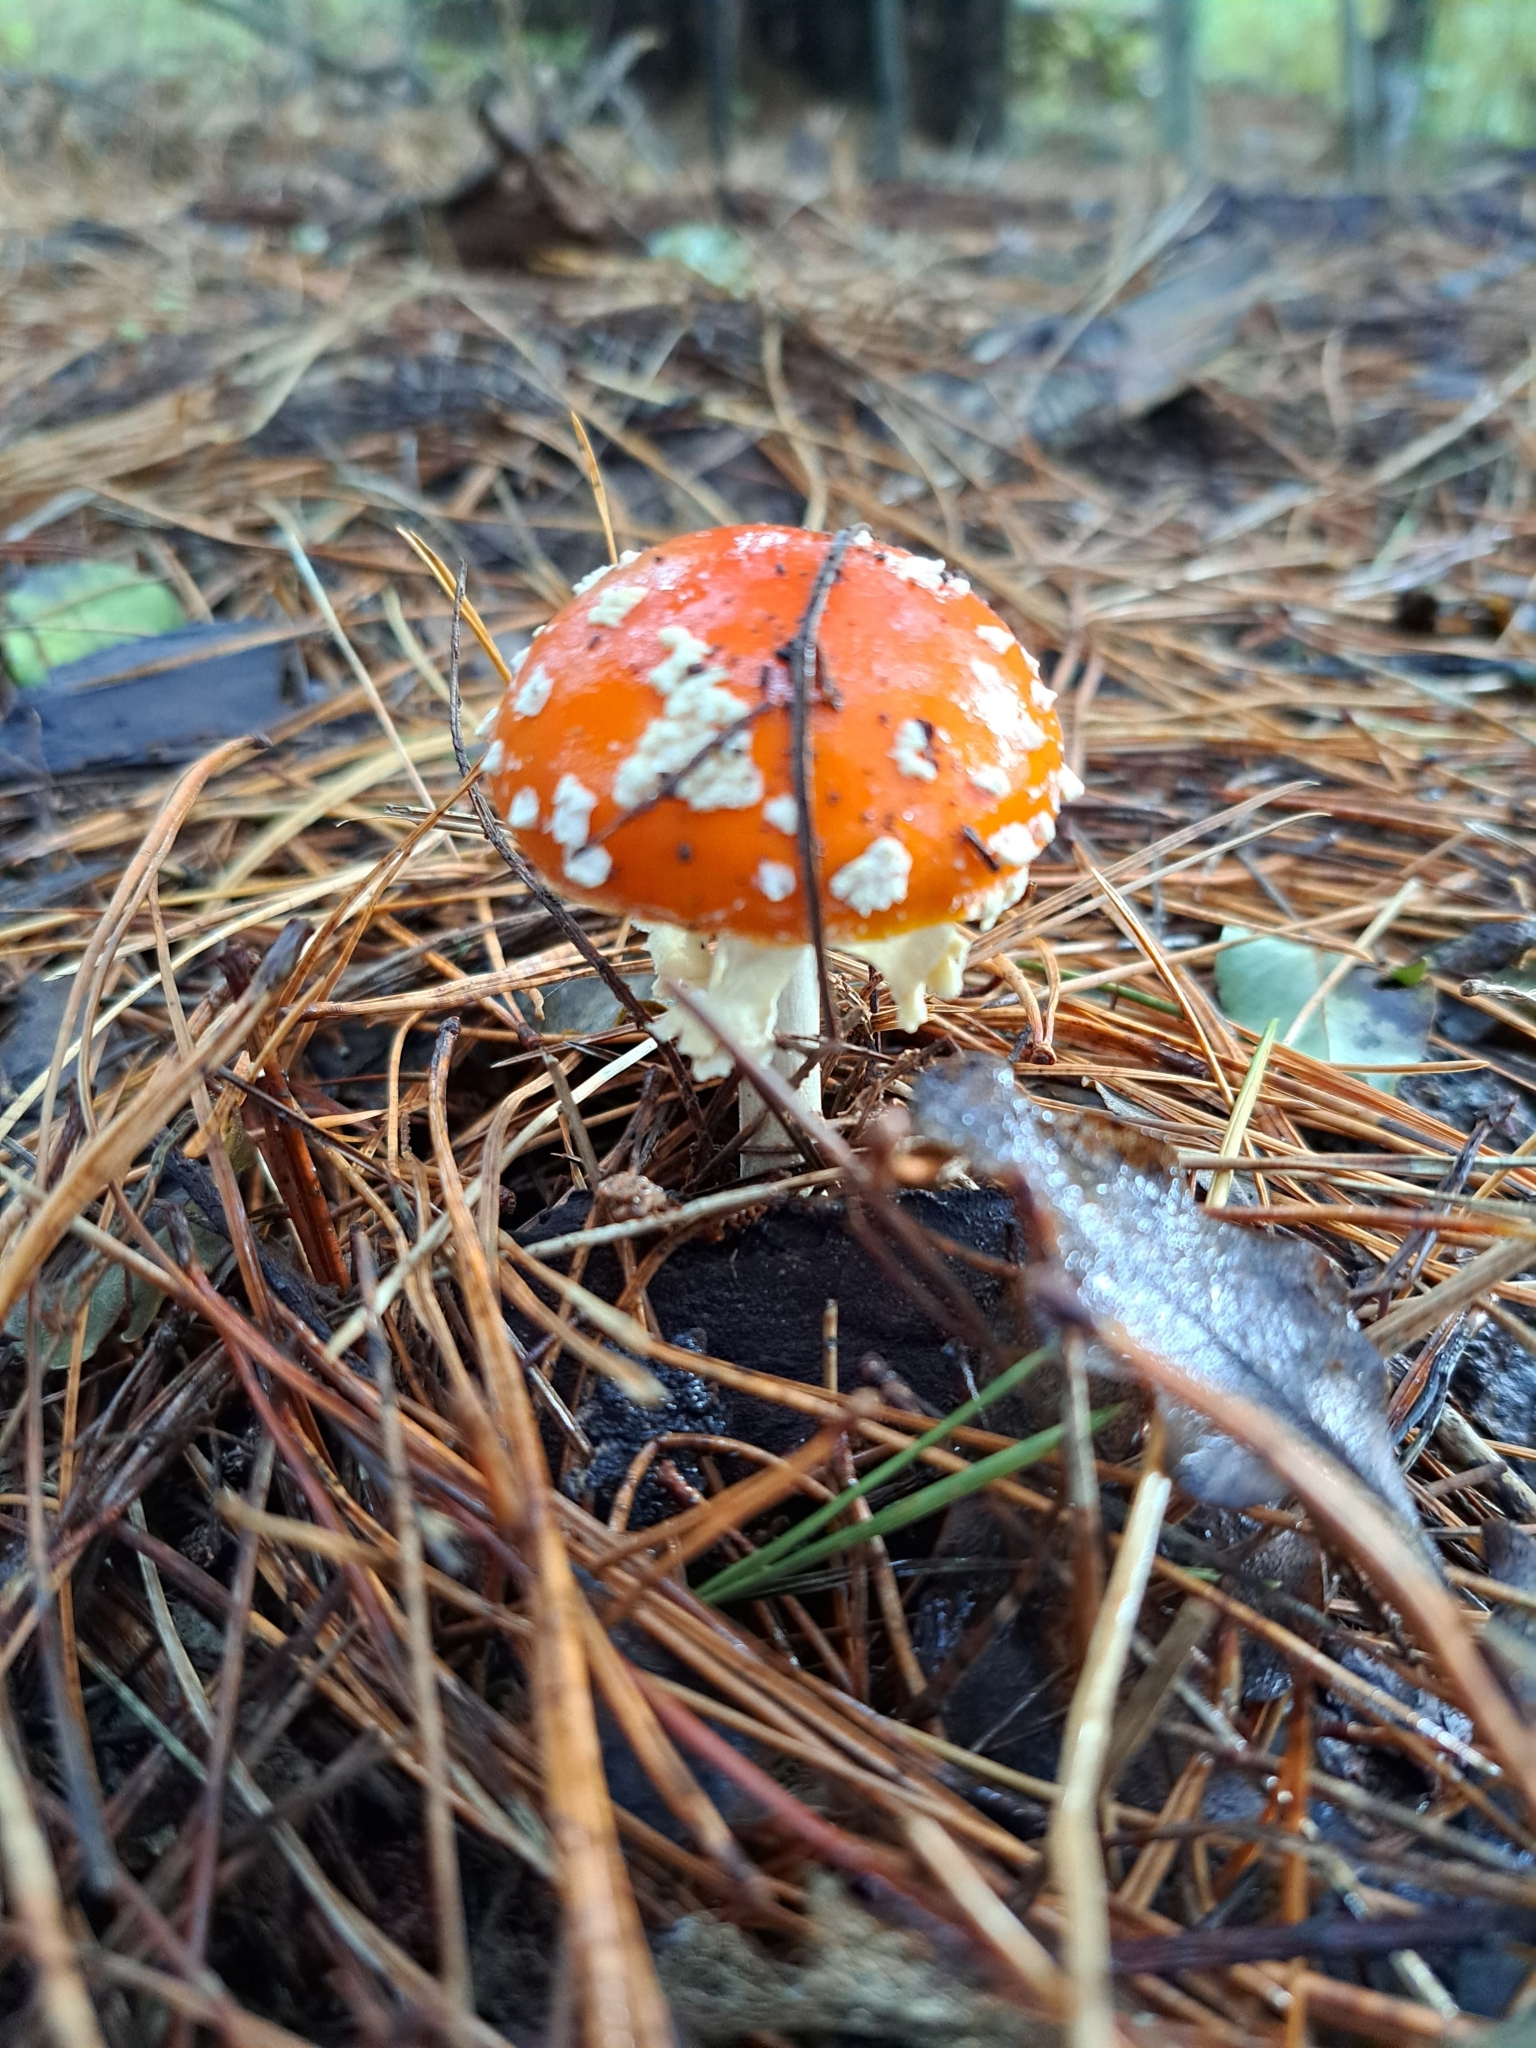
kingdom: Fungi
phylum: Basidiomycota
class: Agaricomycetes
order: Agaricales
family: Amanitaceae
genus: Amanita
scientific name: Amanita muscaria
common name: Fly agaric
